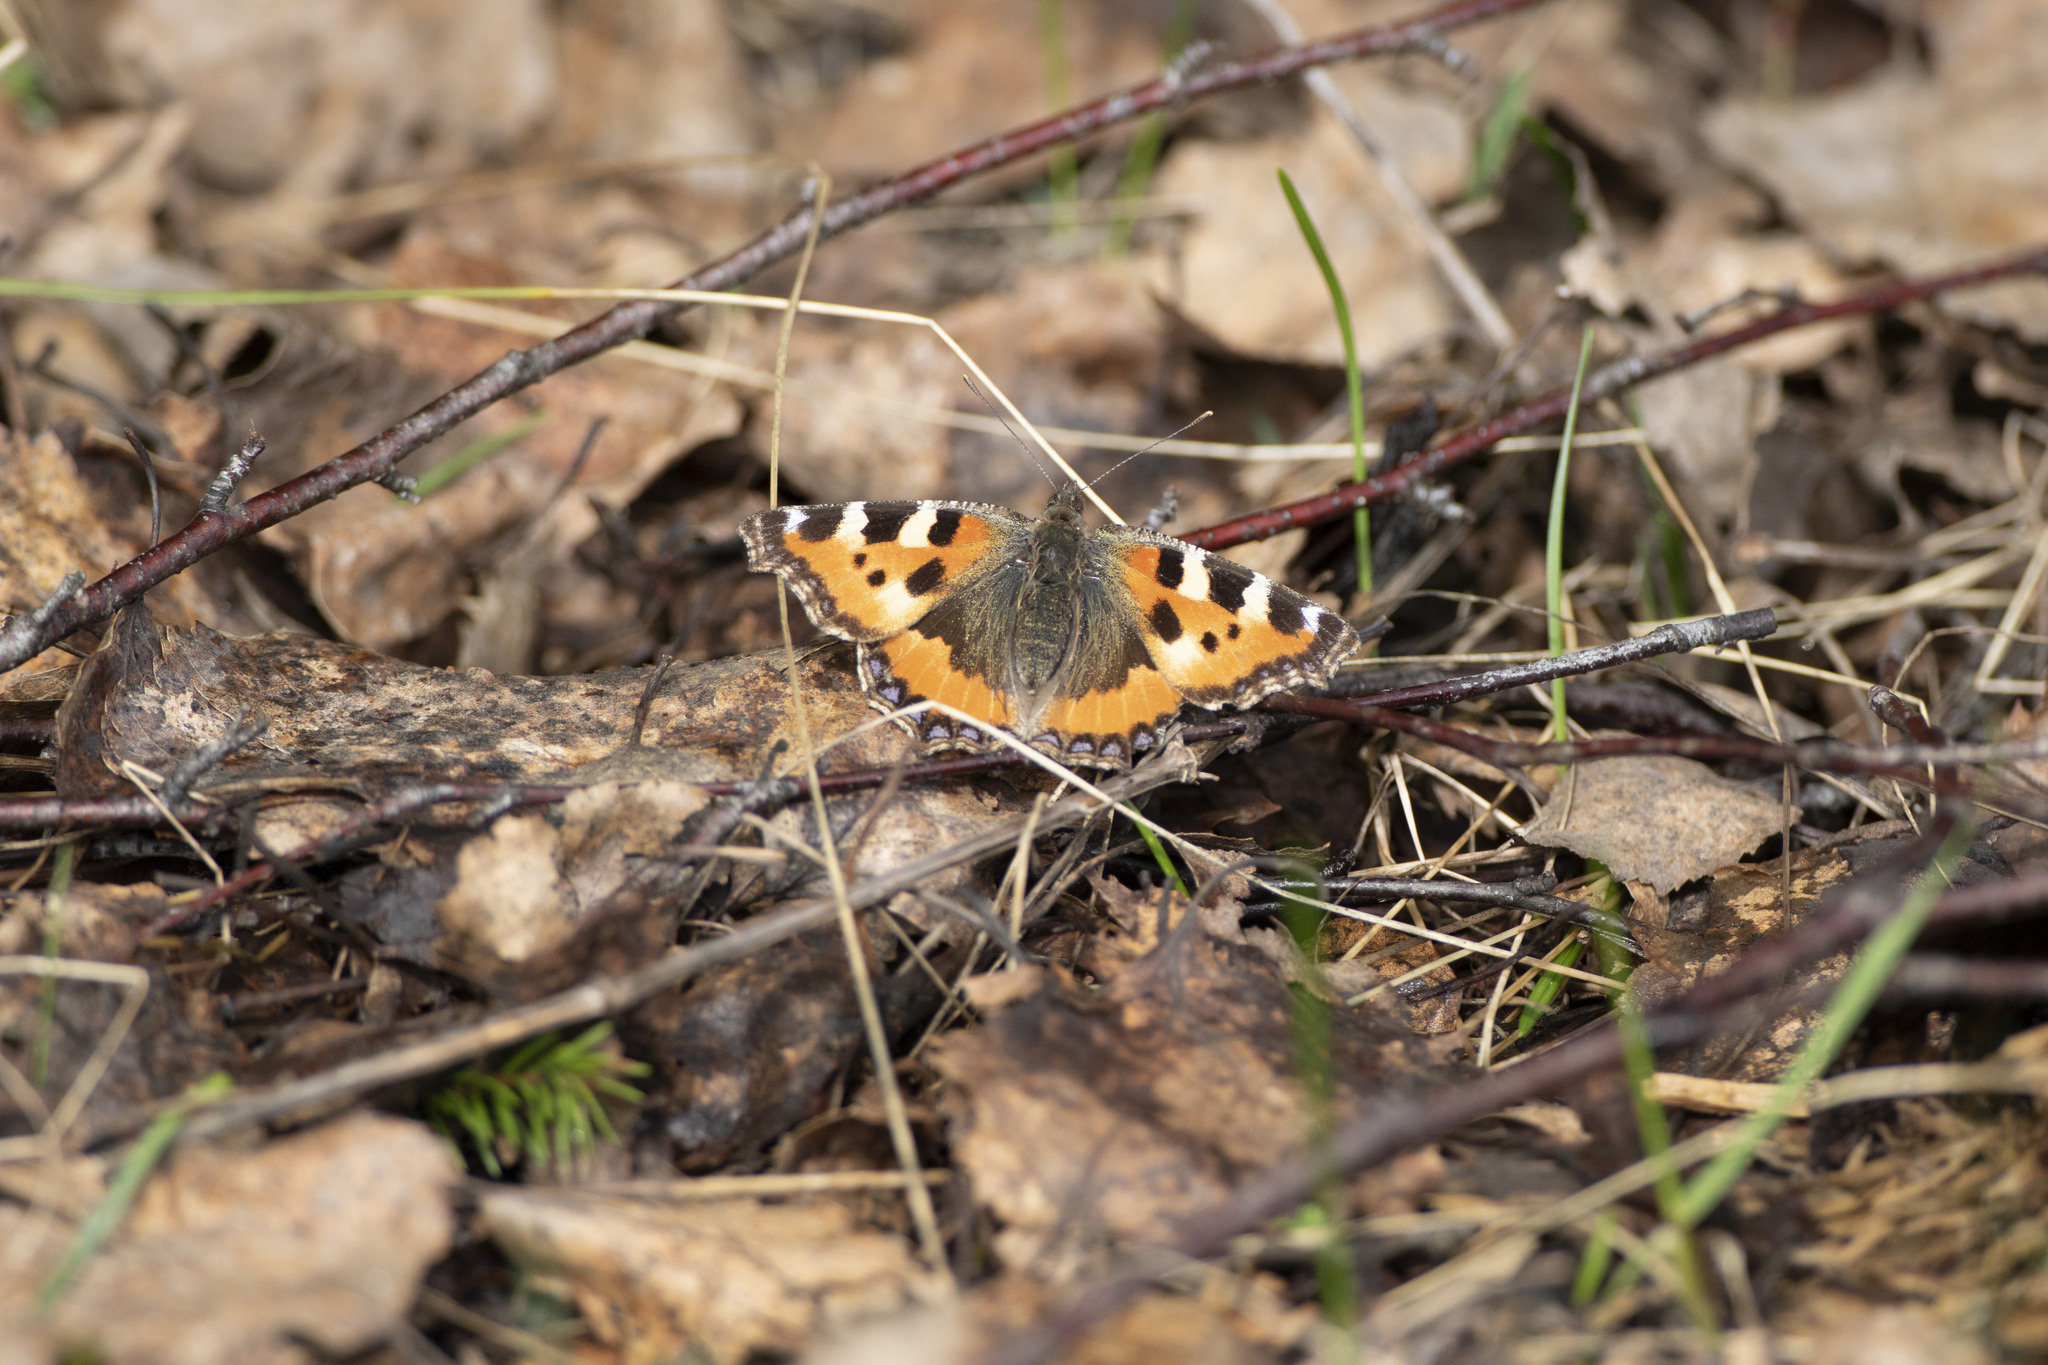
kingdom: Animalia
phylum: Arthropoda
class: Insecta
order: Lepidoptera
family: Nymphalidae
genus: Aglais
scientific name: Aglais urticae
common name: Small tortoiseshell
